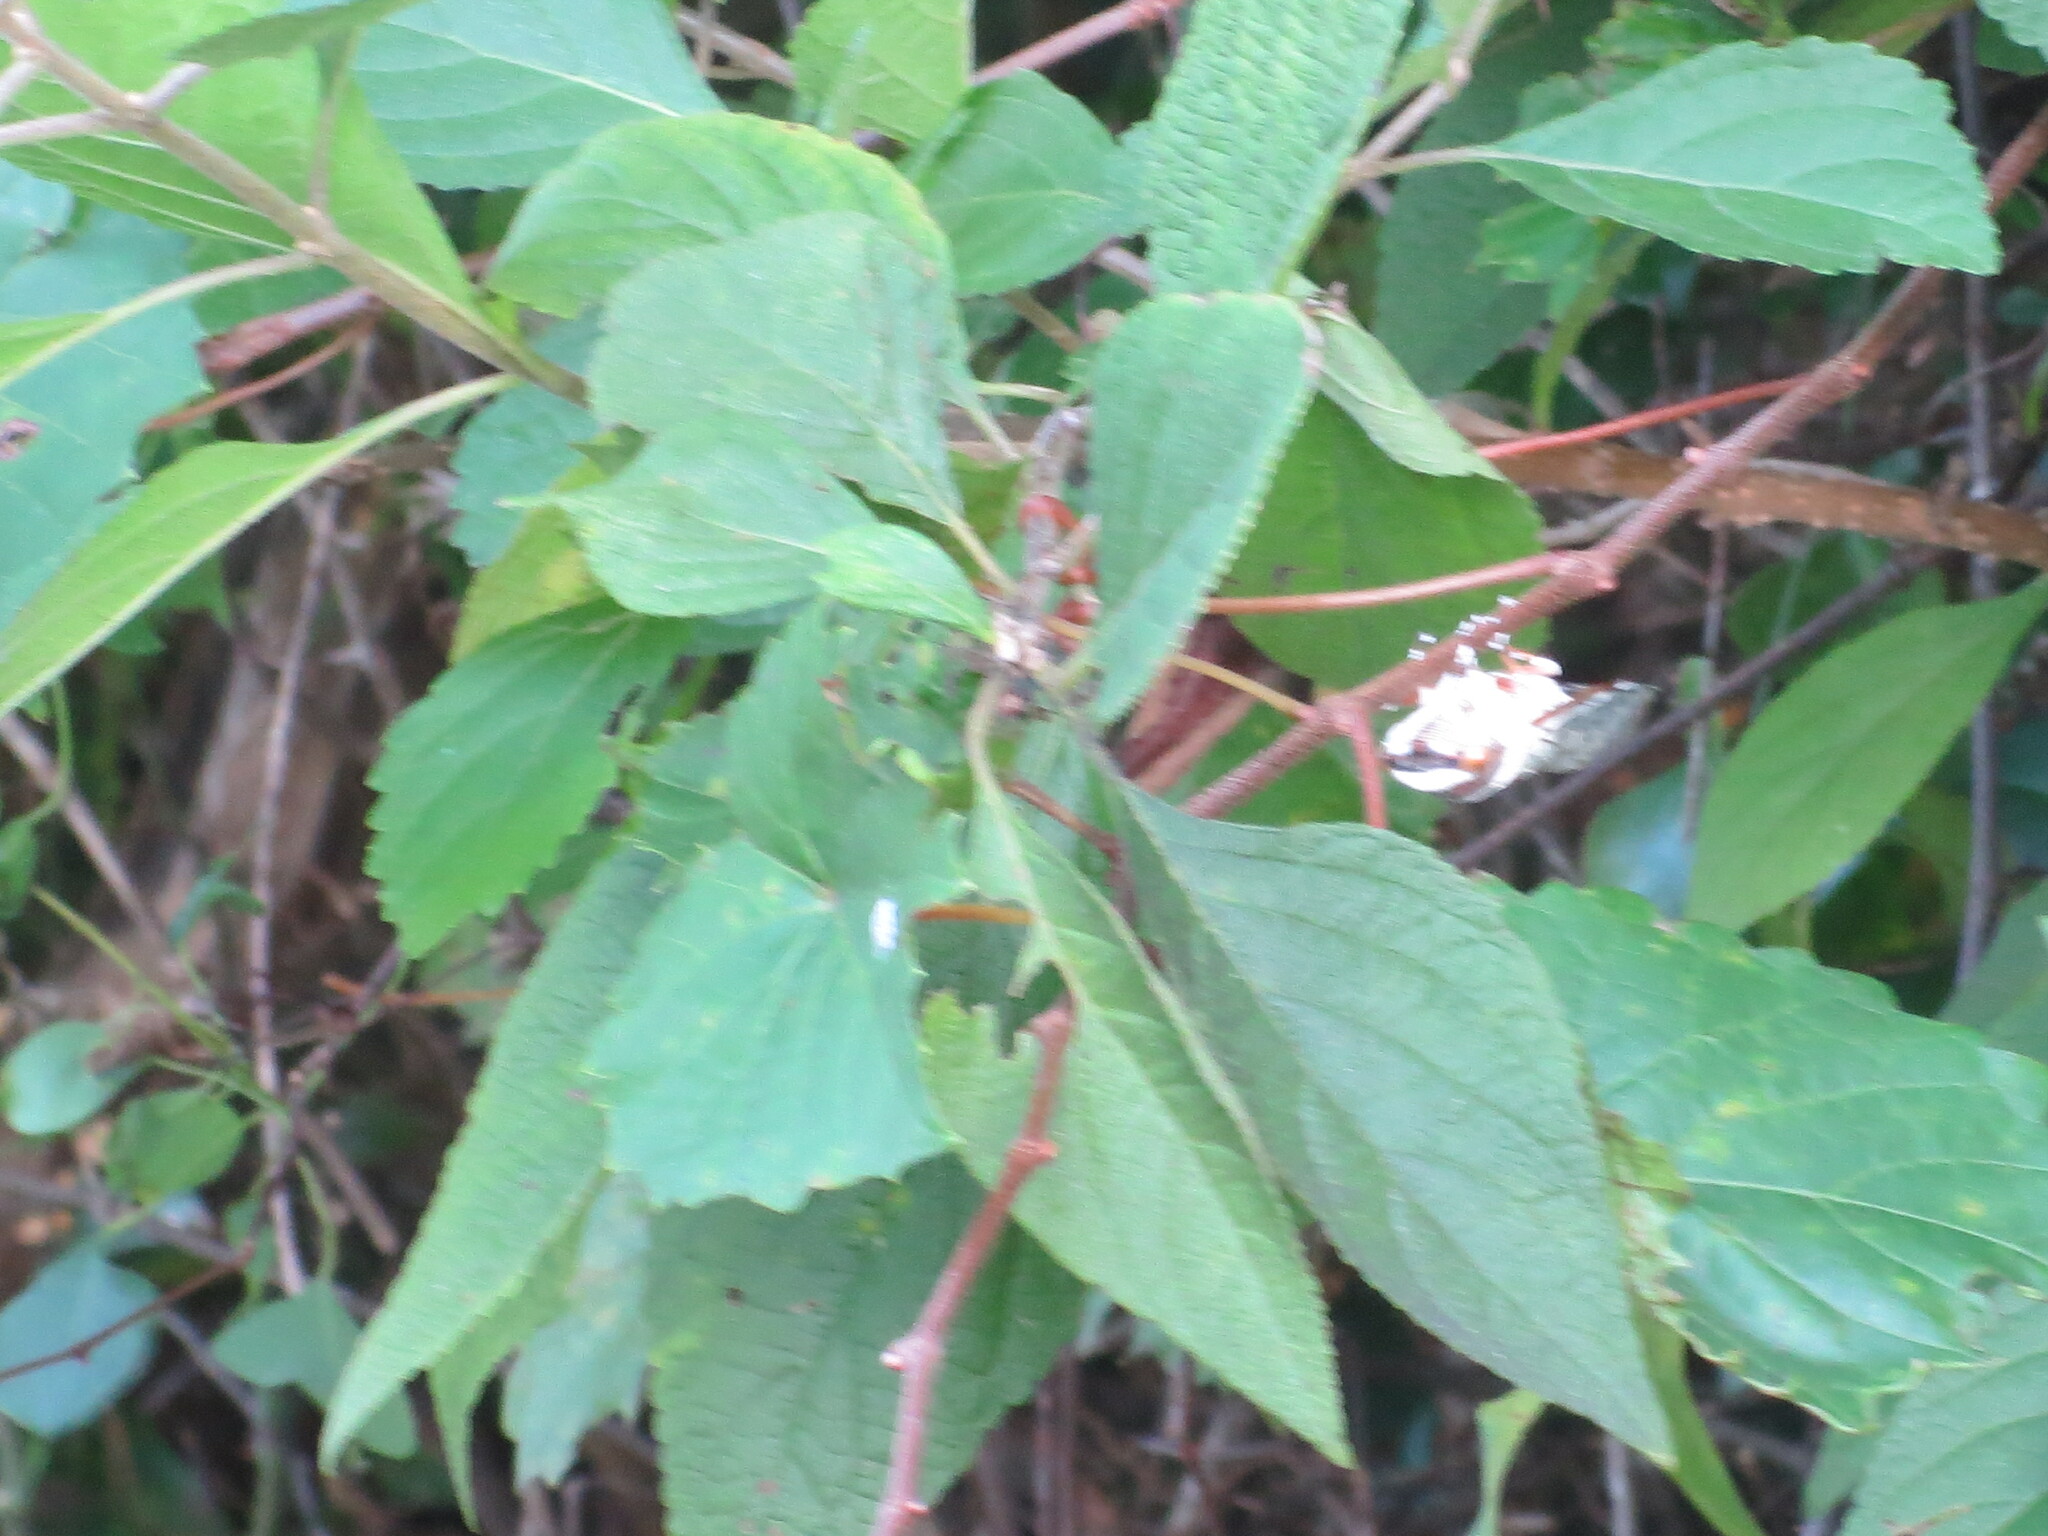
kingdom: Plantae
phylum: Tracheophyta
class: Magnoliopsida
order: Lamiales
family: Lamiaceae
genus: Callicarpa
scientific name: Callicarpa americana
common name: American beautyberry
